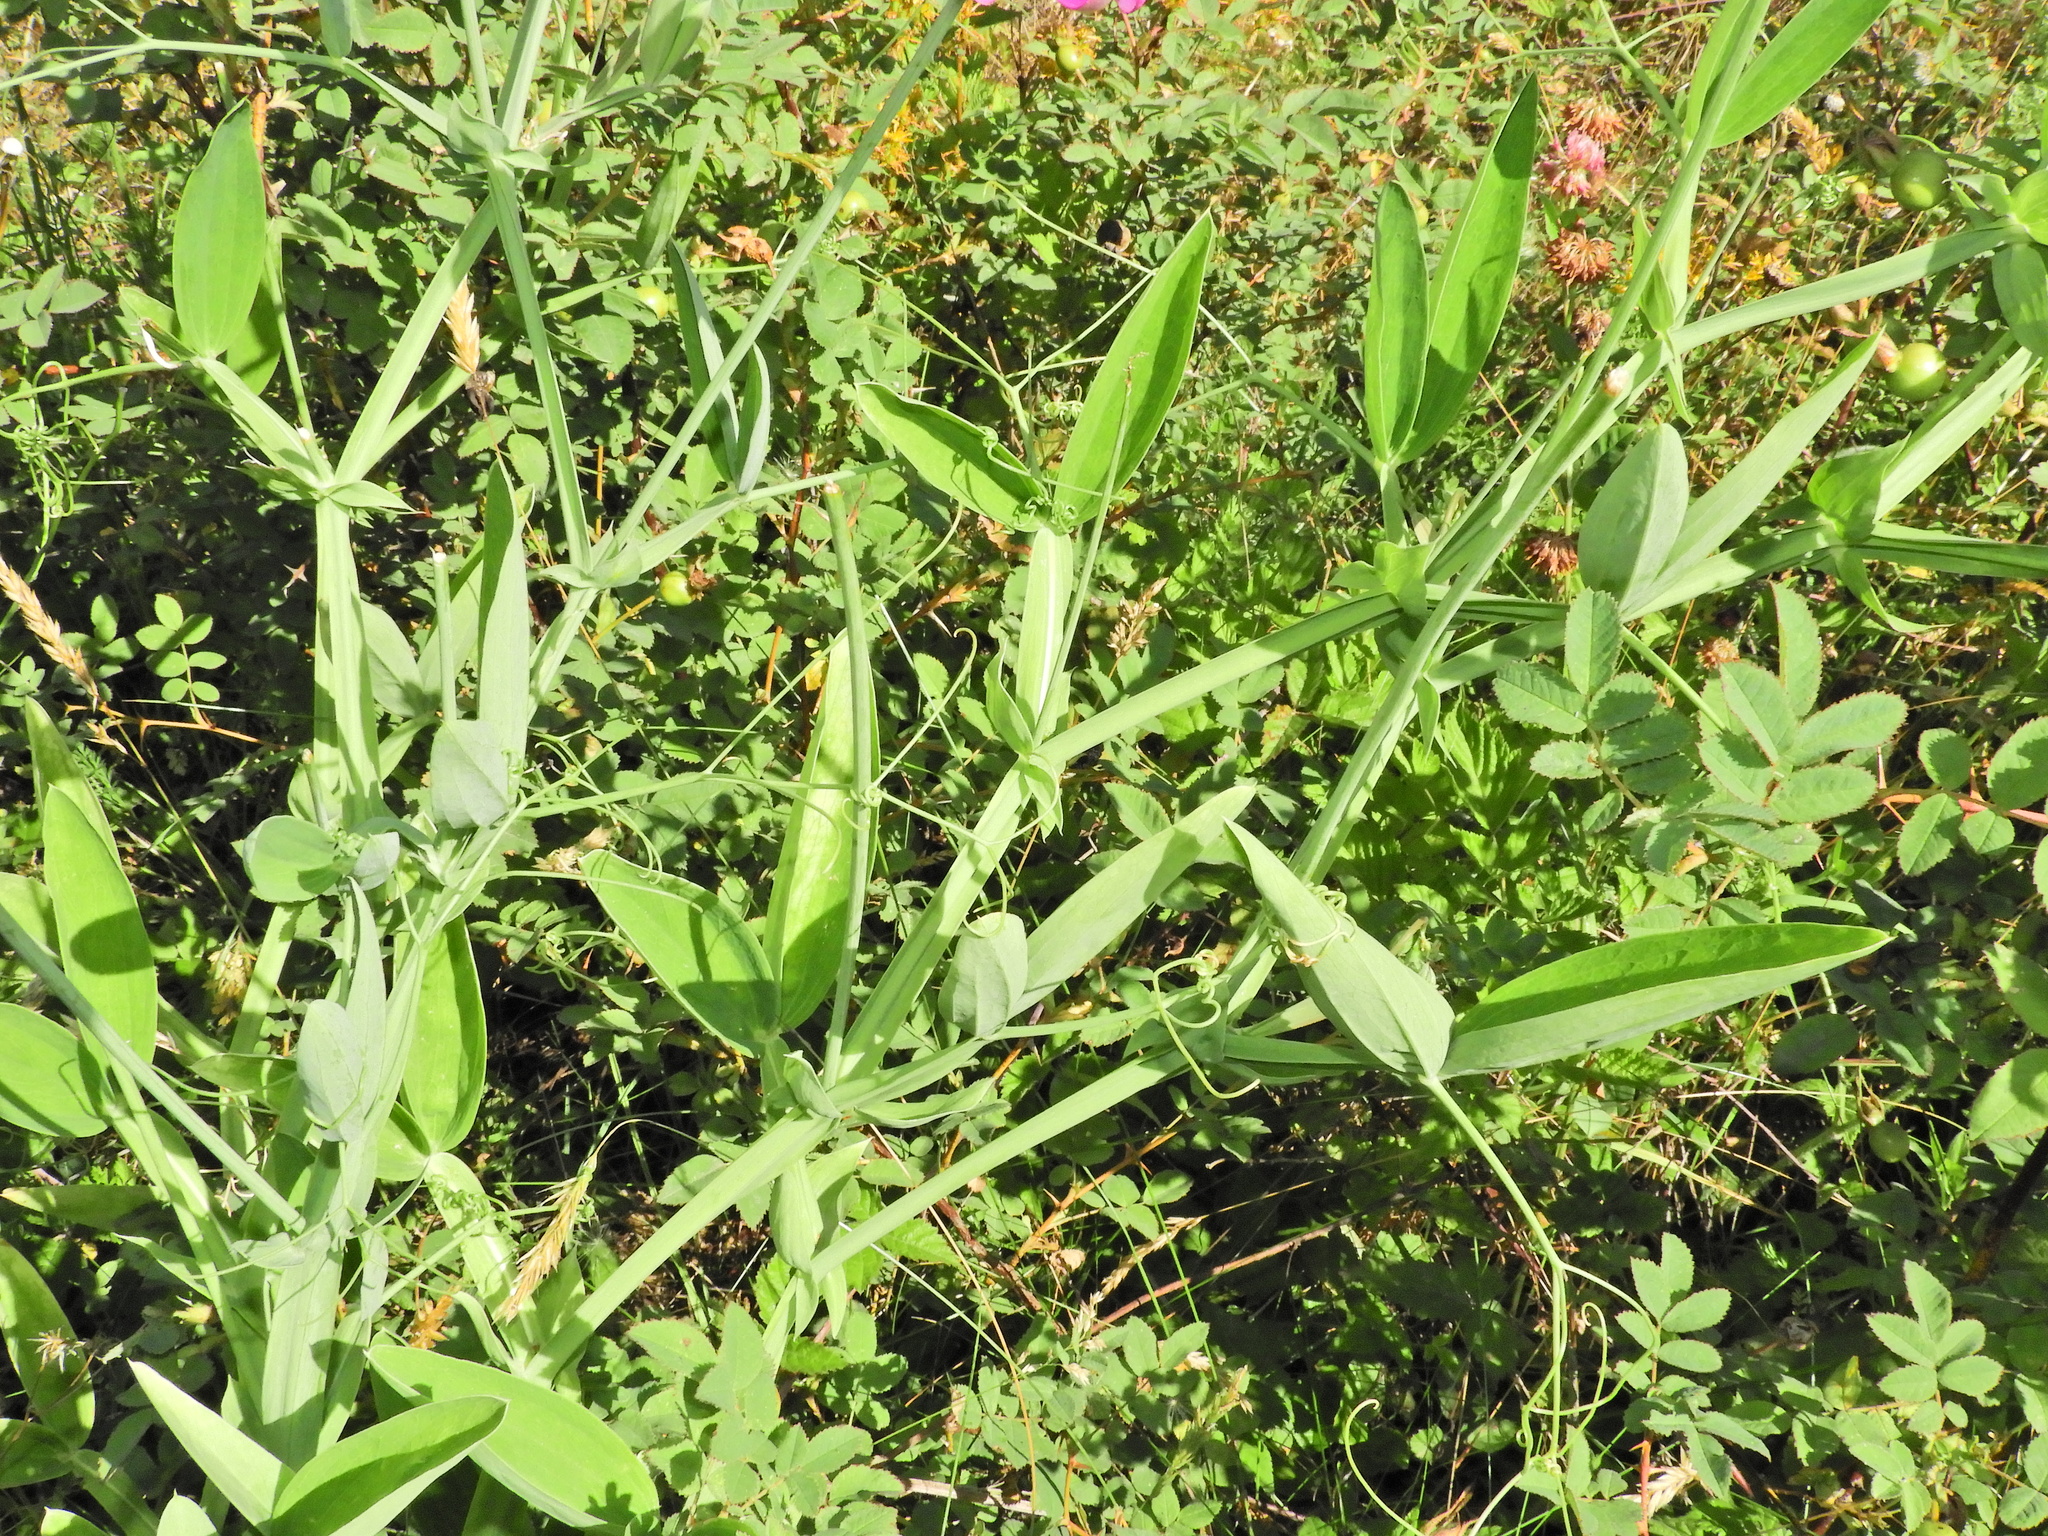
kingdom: Plantae
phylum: Tracheophyta
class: Magnoliopsida
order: Fabales
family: Fabaceae
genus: Lathyrus
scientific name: Lathyrus latifolius
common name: Perennial pea
